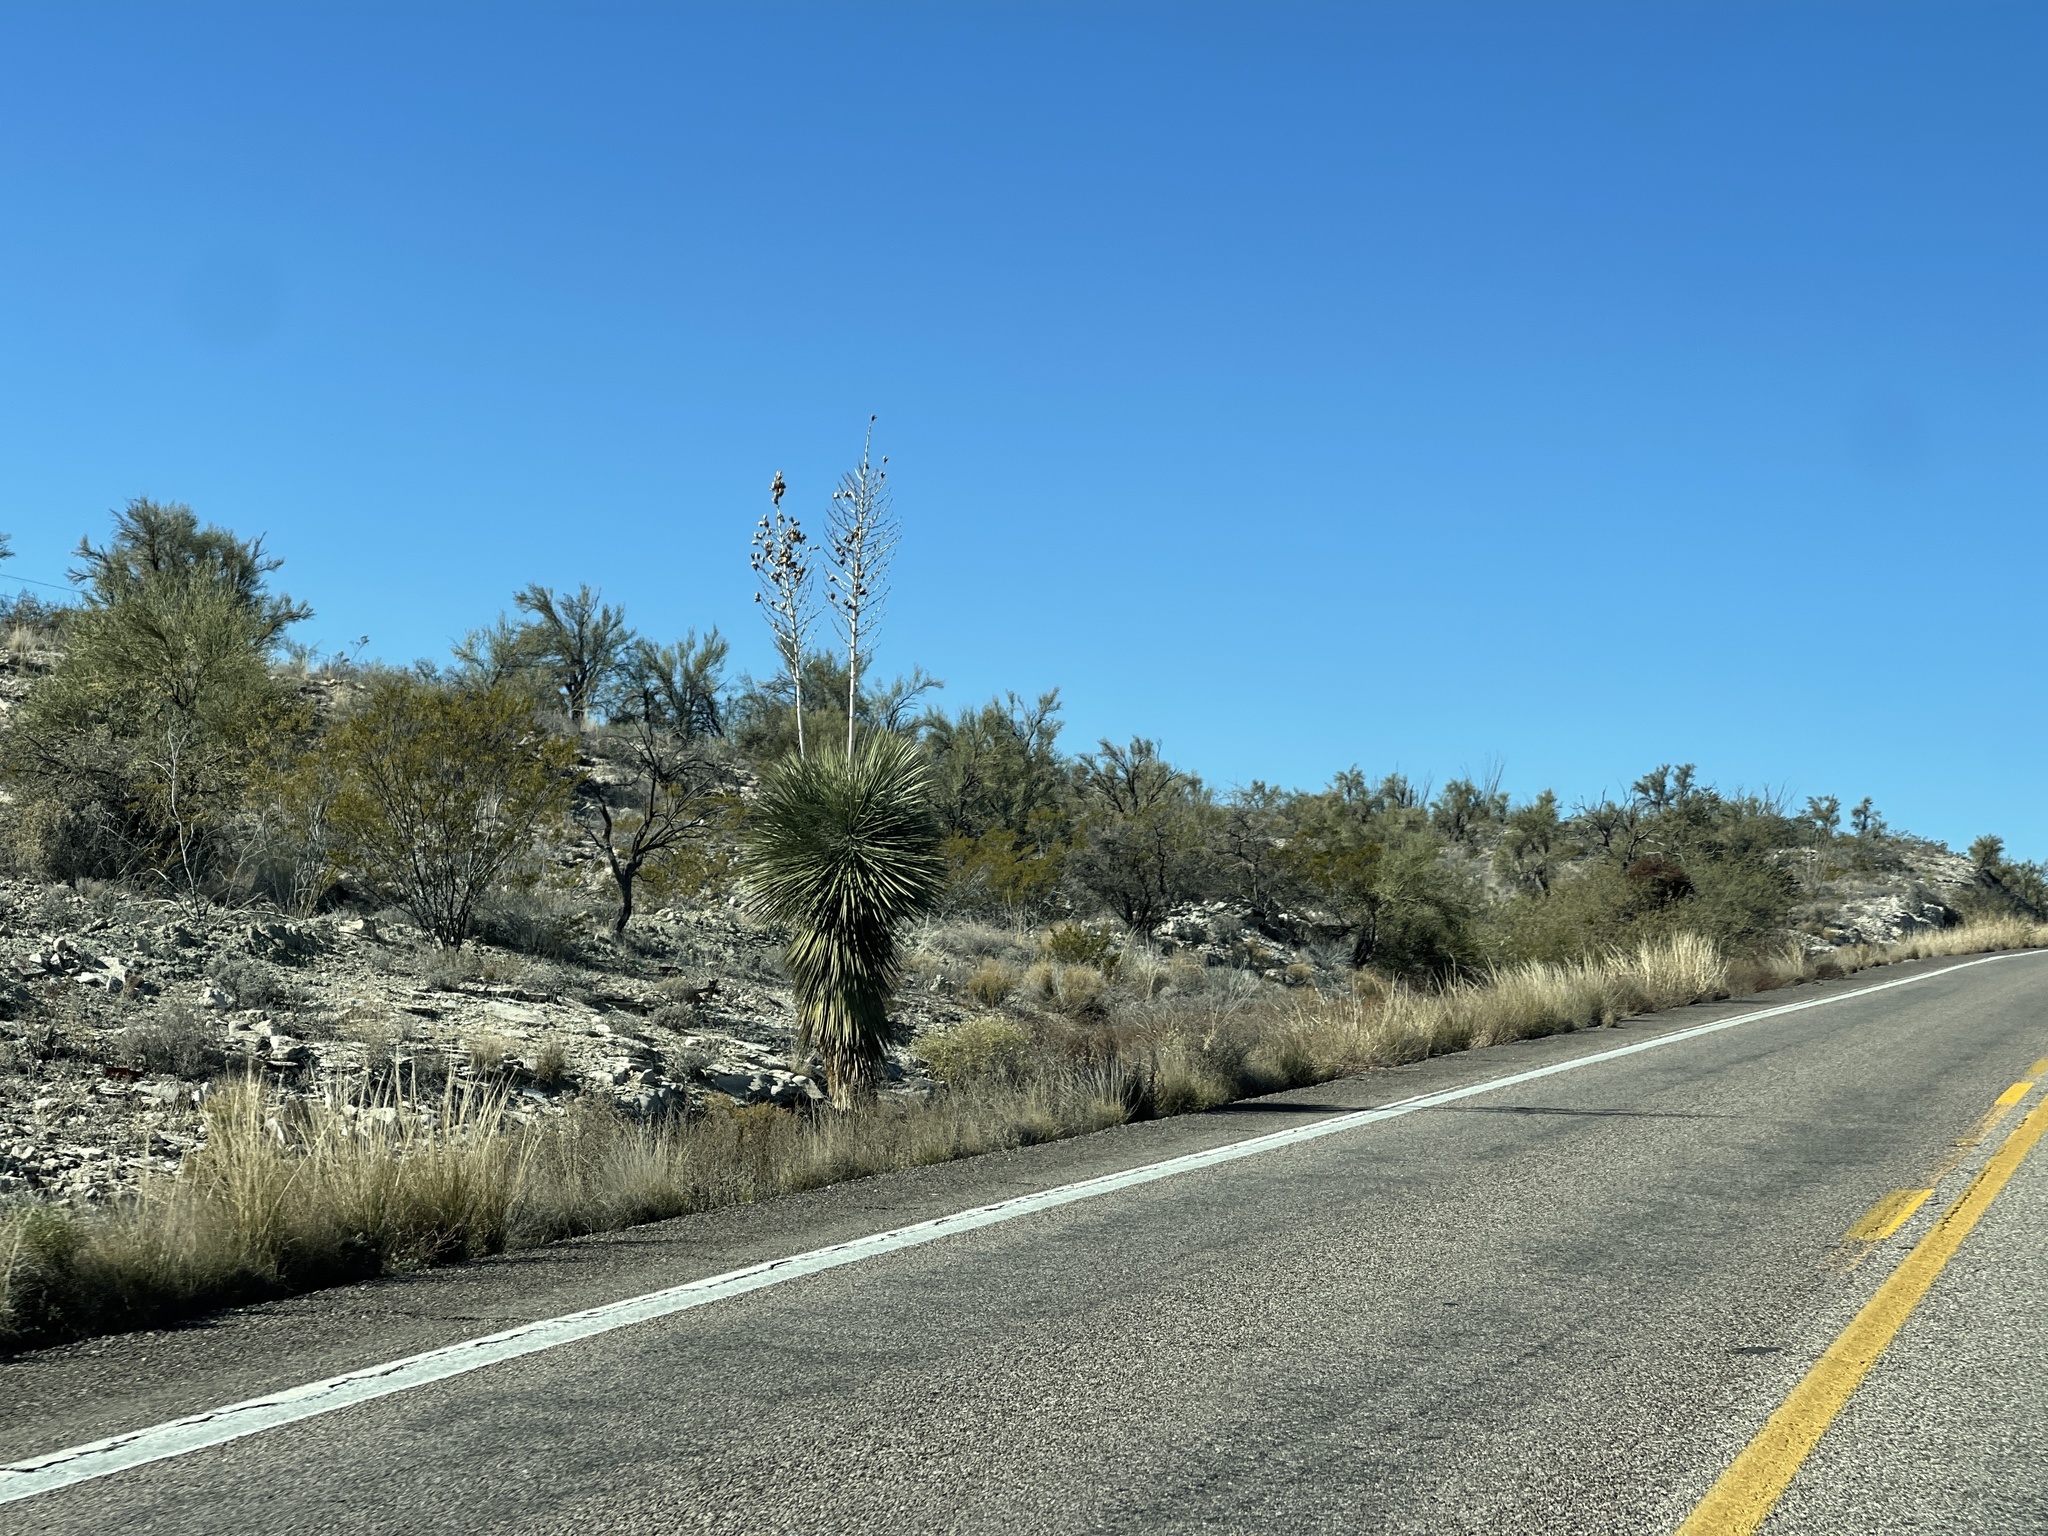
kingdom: Plantae
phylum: Tracheophyta
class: Liliopsida
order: Asparagales
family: Asparagaceae
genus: Yucca
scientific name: Yucca elata
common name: Palmella
